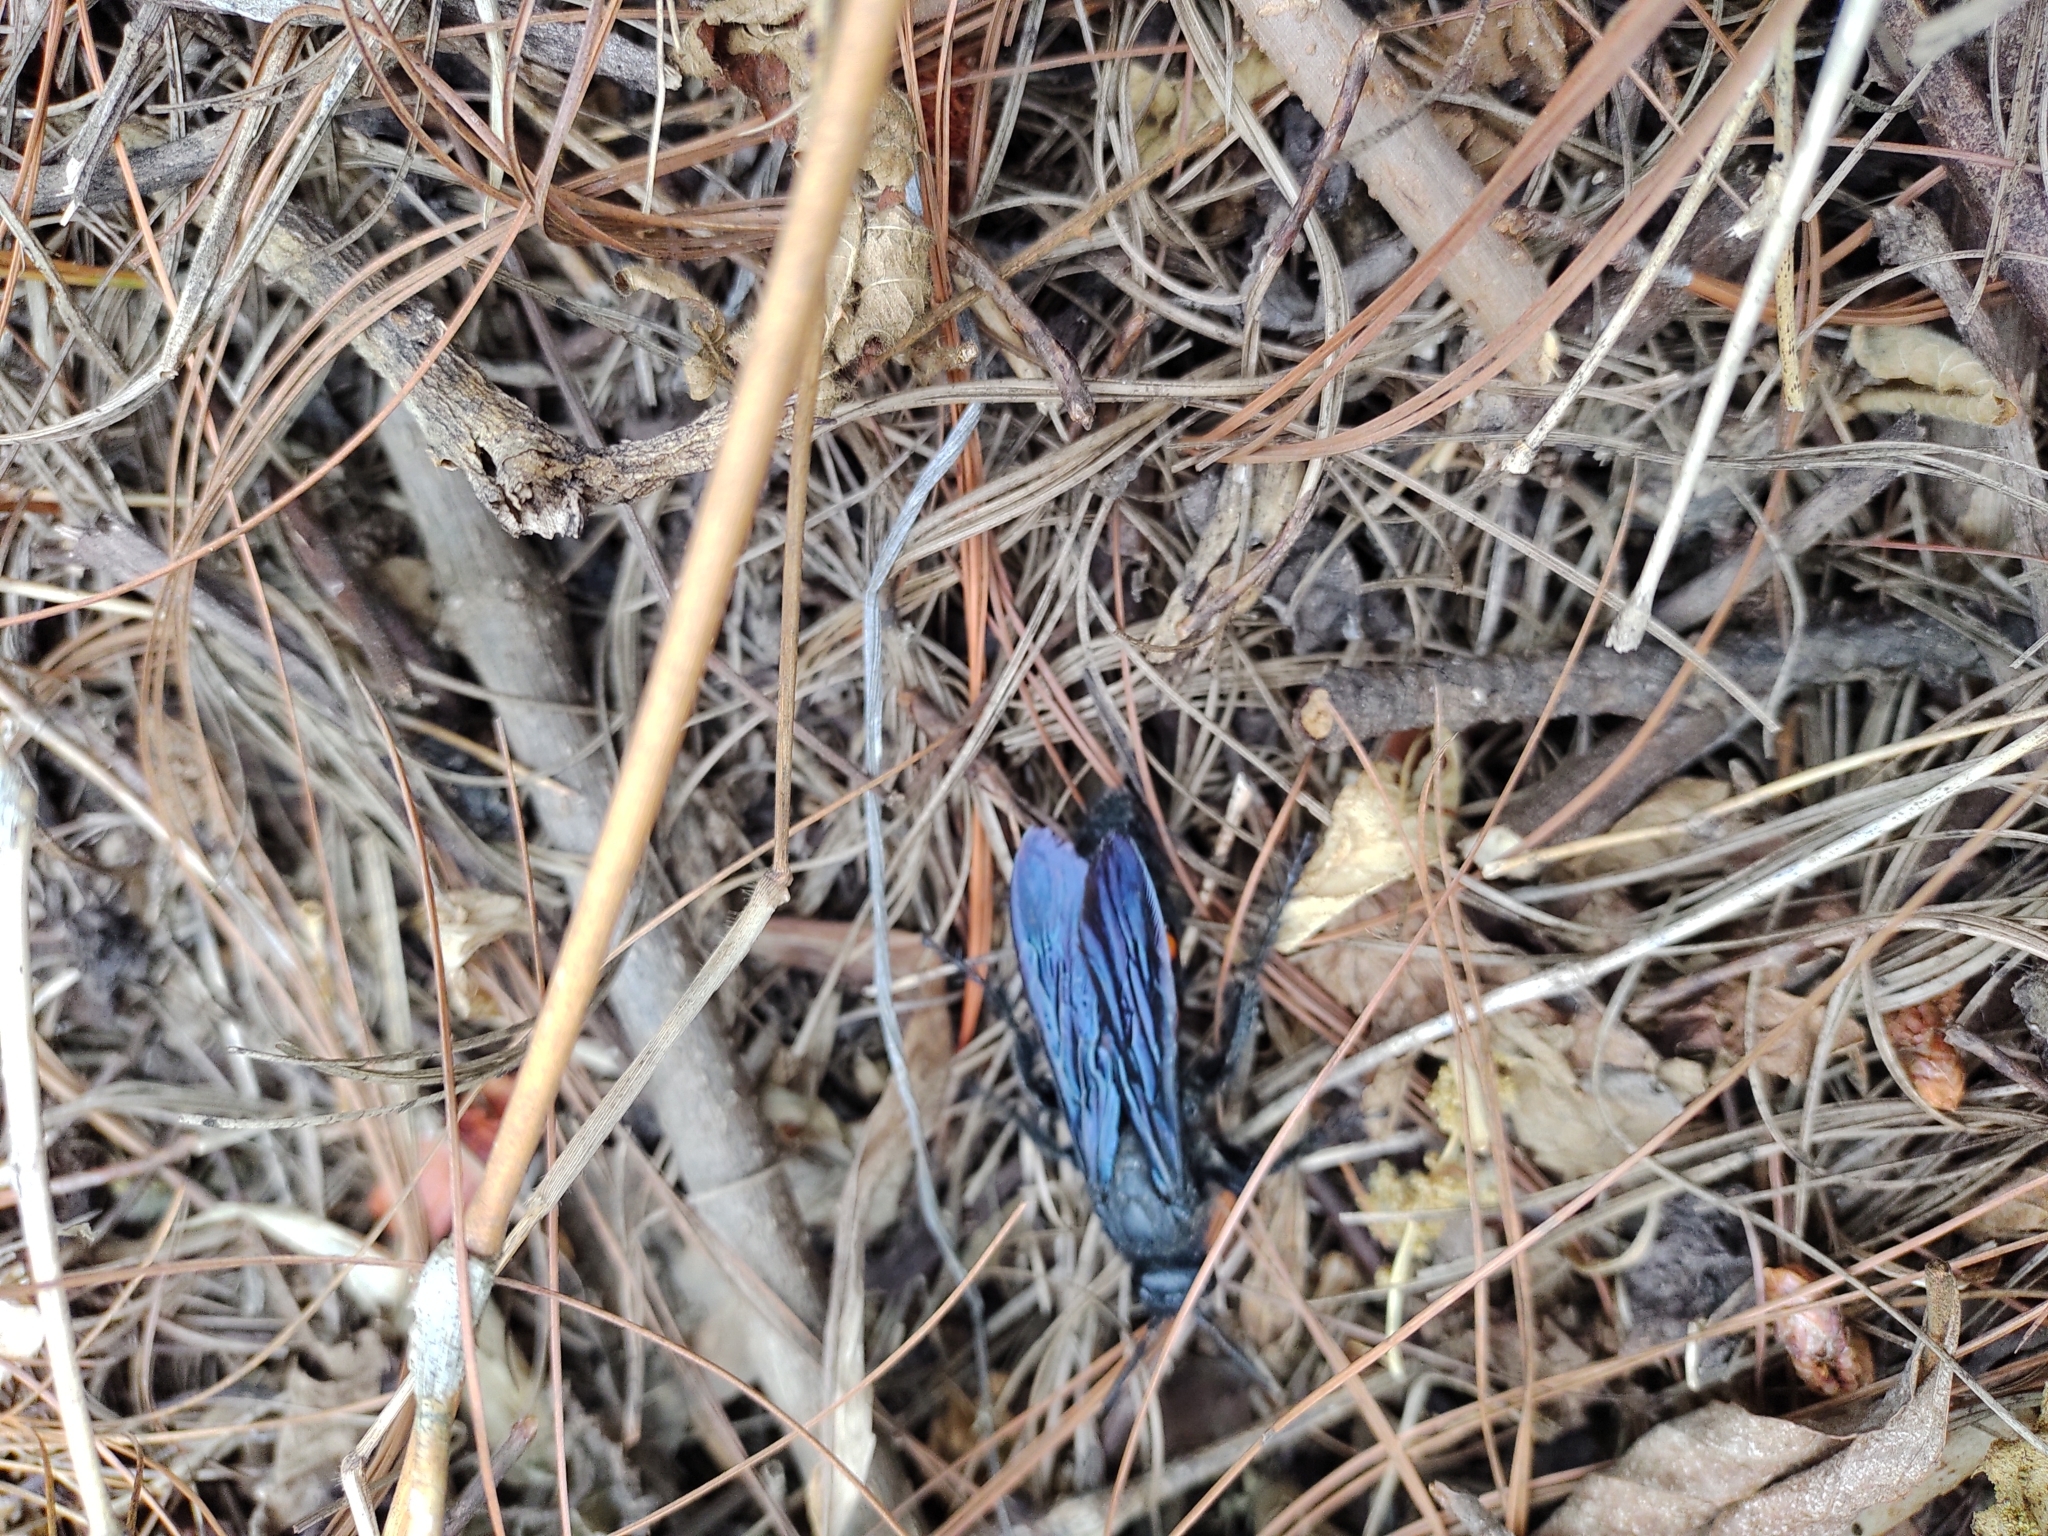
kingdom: Animalia
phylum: Arthropoda
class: Insecta
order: Hymenoptera
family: Scoliidae
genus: Pygodasis
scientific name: Pygodasis ephippium
